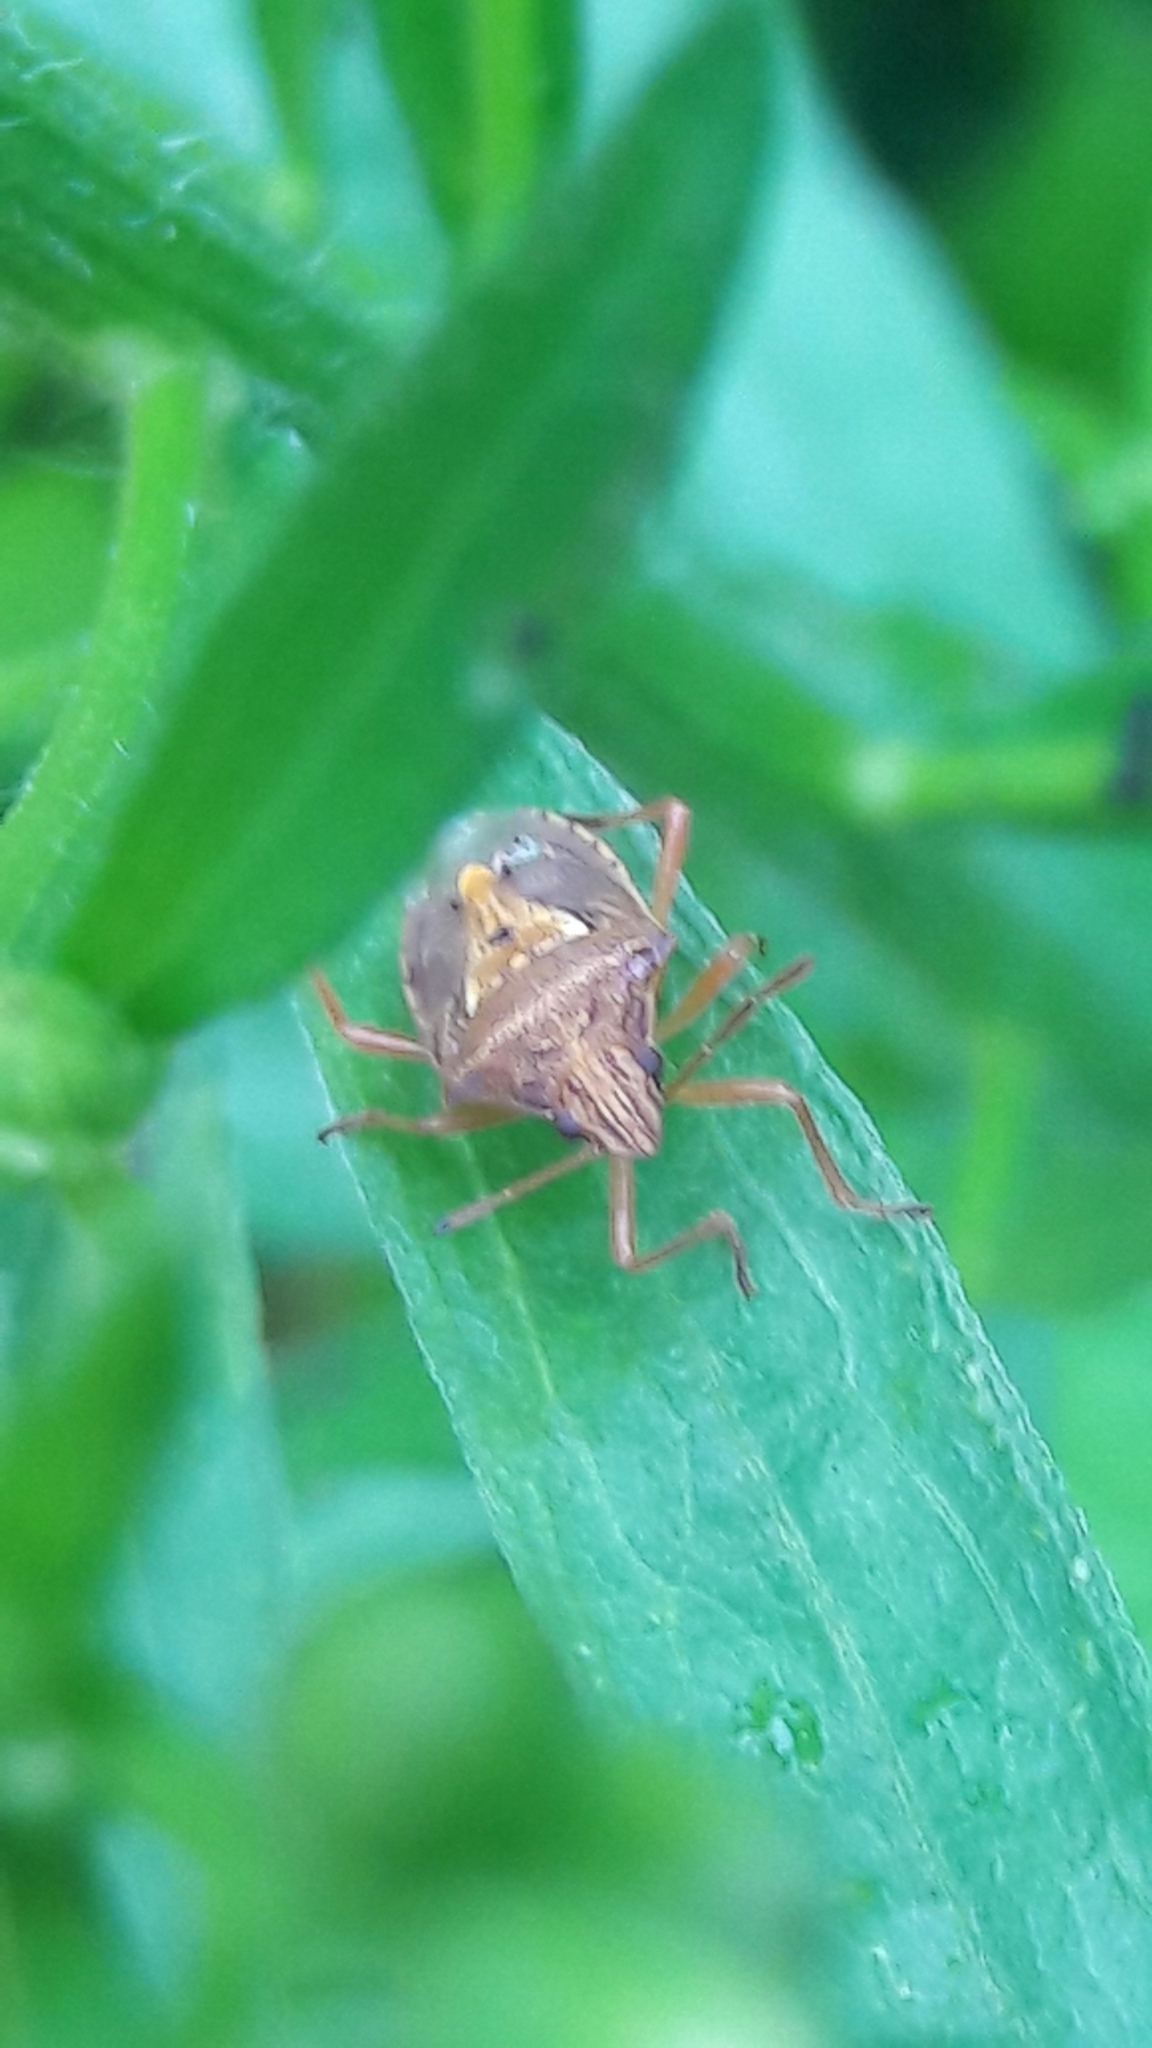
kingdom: Animalia
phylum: Arthropoda
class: Insecta
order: Hemiptera
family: Pentatomidae
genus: Oebalus
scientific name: Oebalus ypsilongriseus
